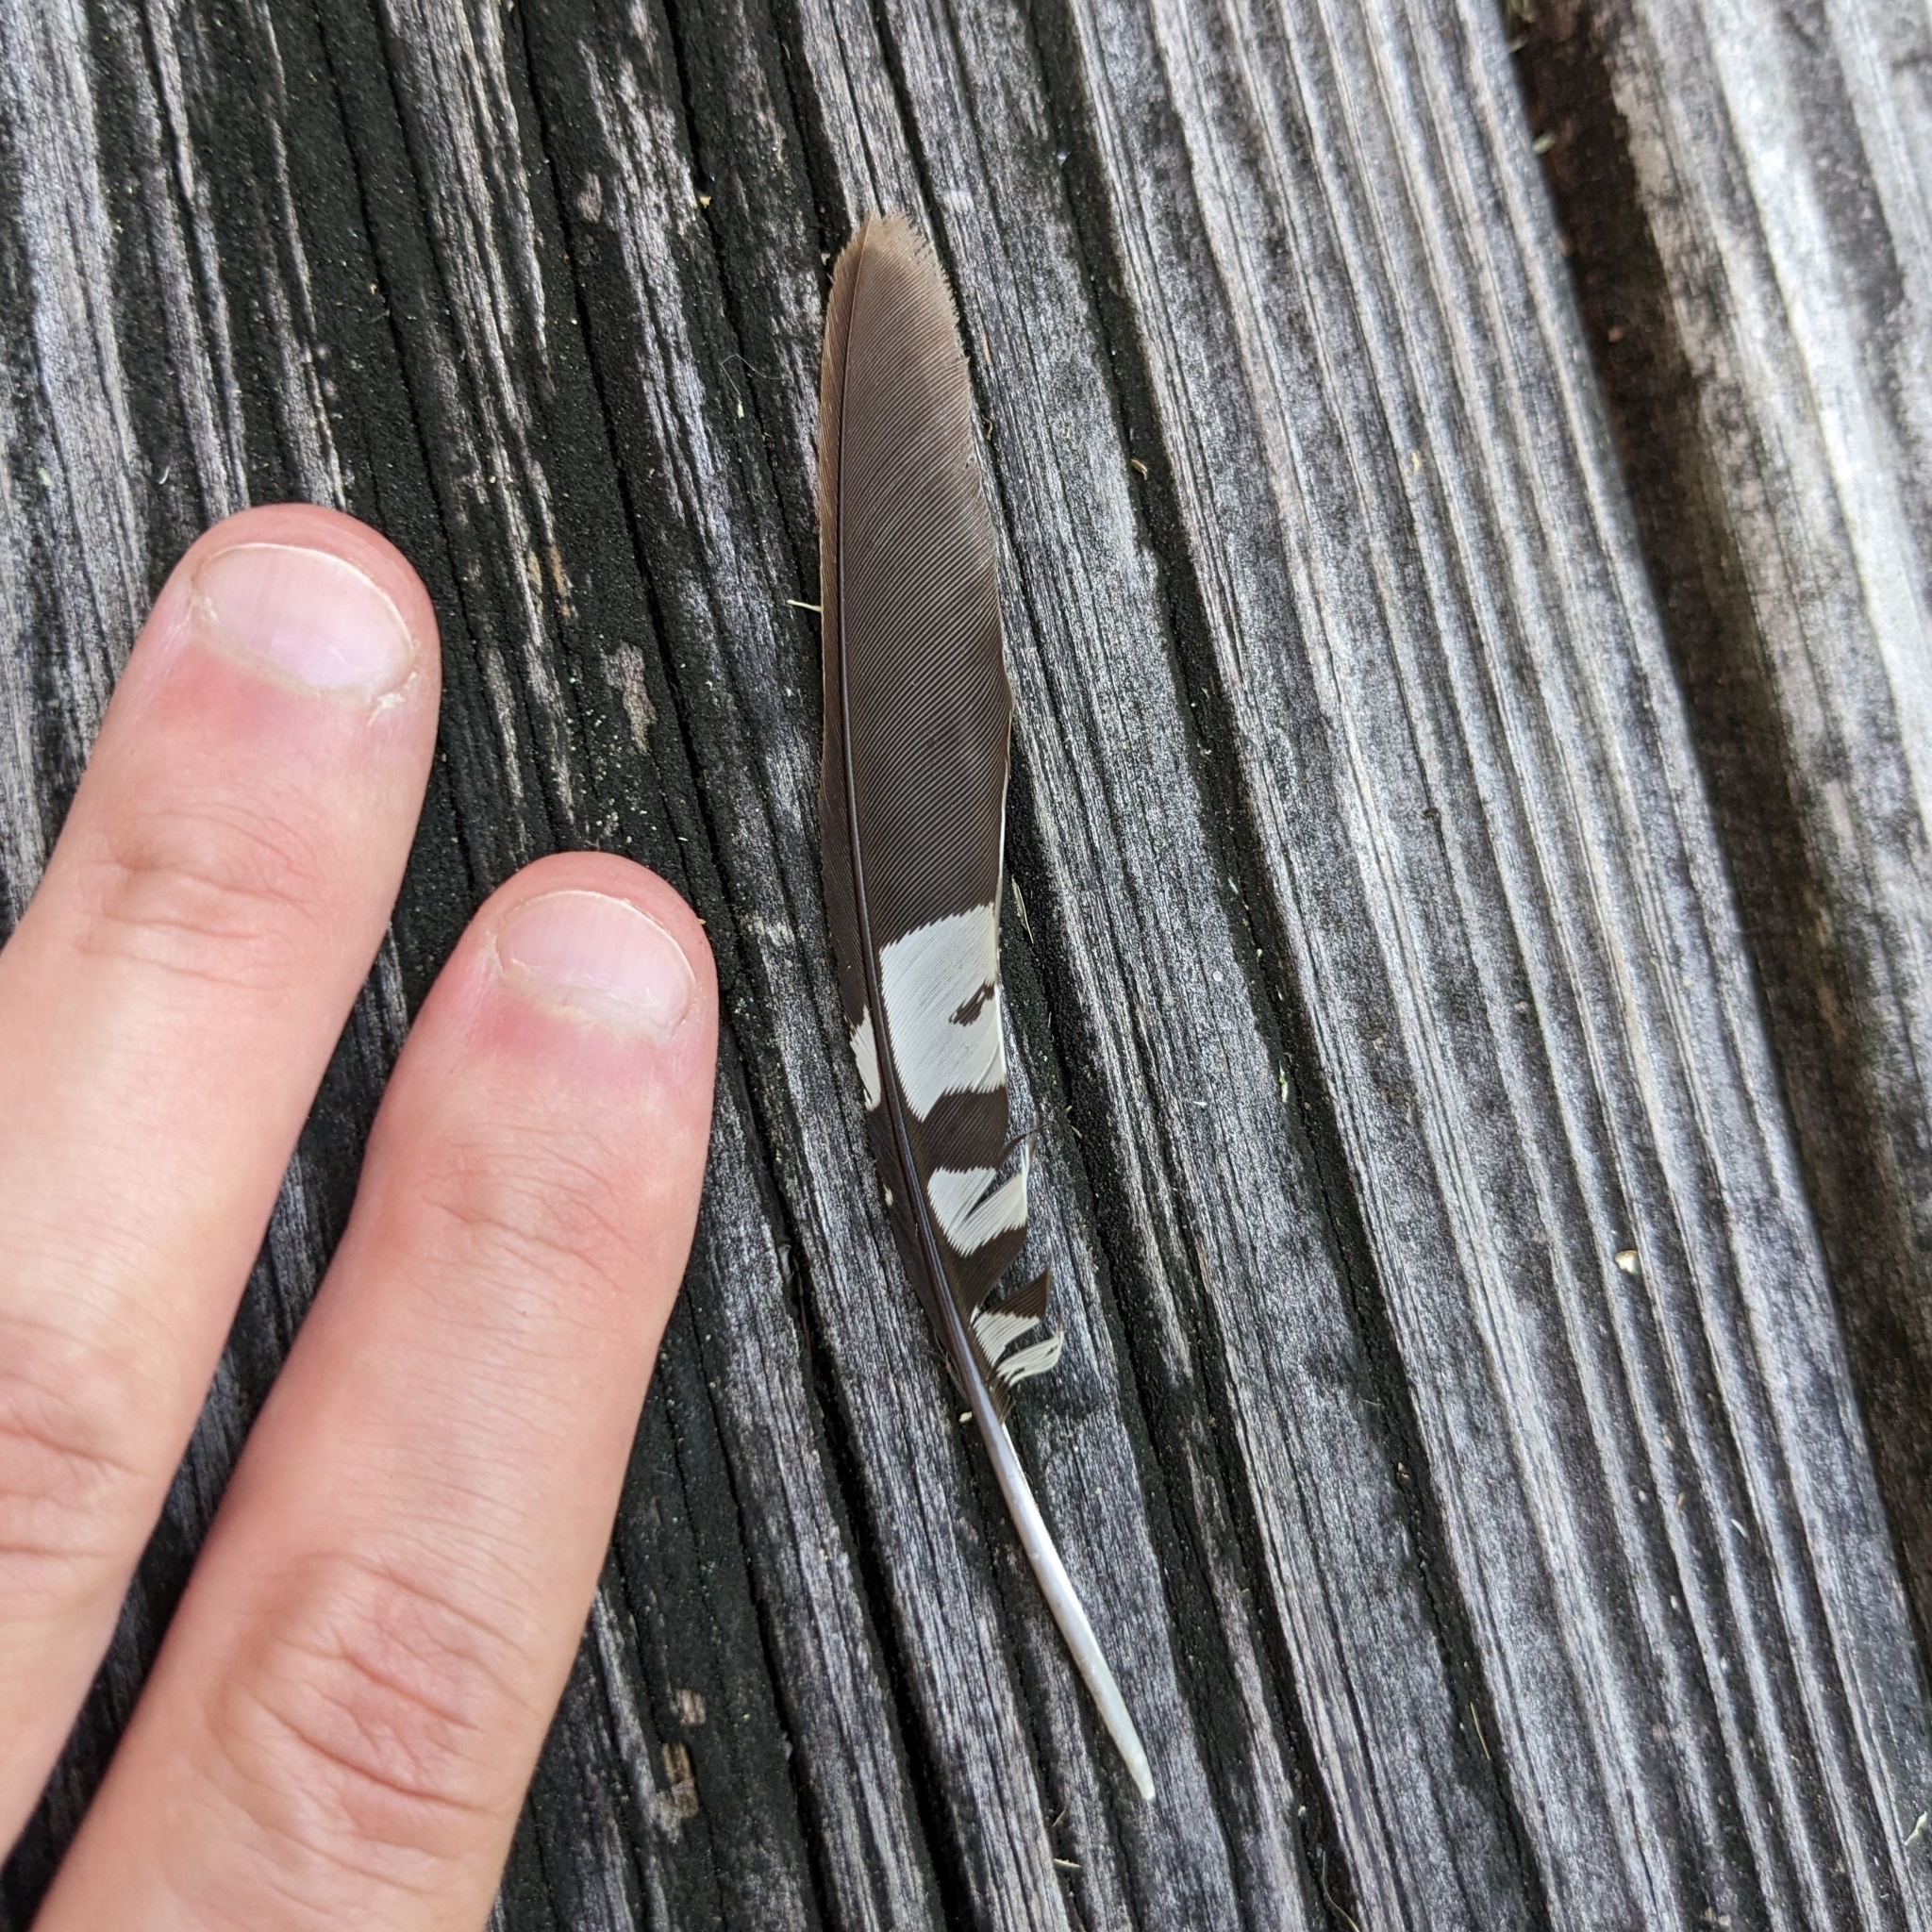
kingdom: Animalia
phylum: Chordata
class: Aves
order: Piciformes
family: Picidae
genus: Melanerpes
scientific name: Melanerpes carolinus
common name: Red-bellied woodpecker
